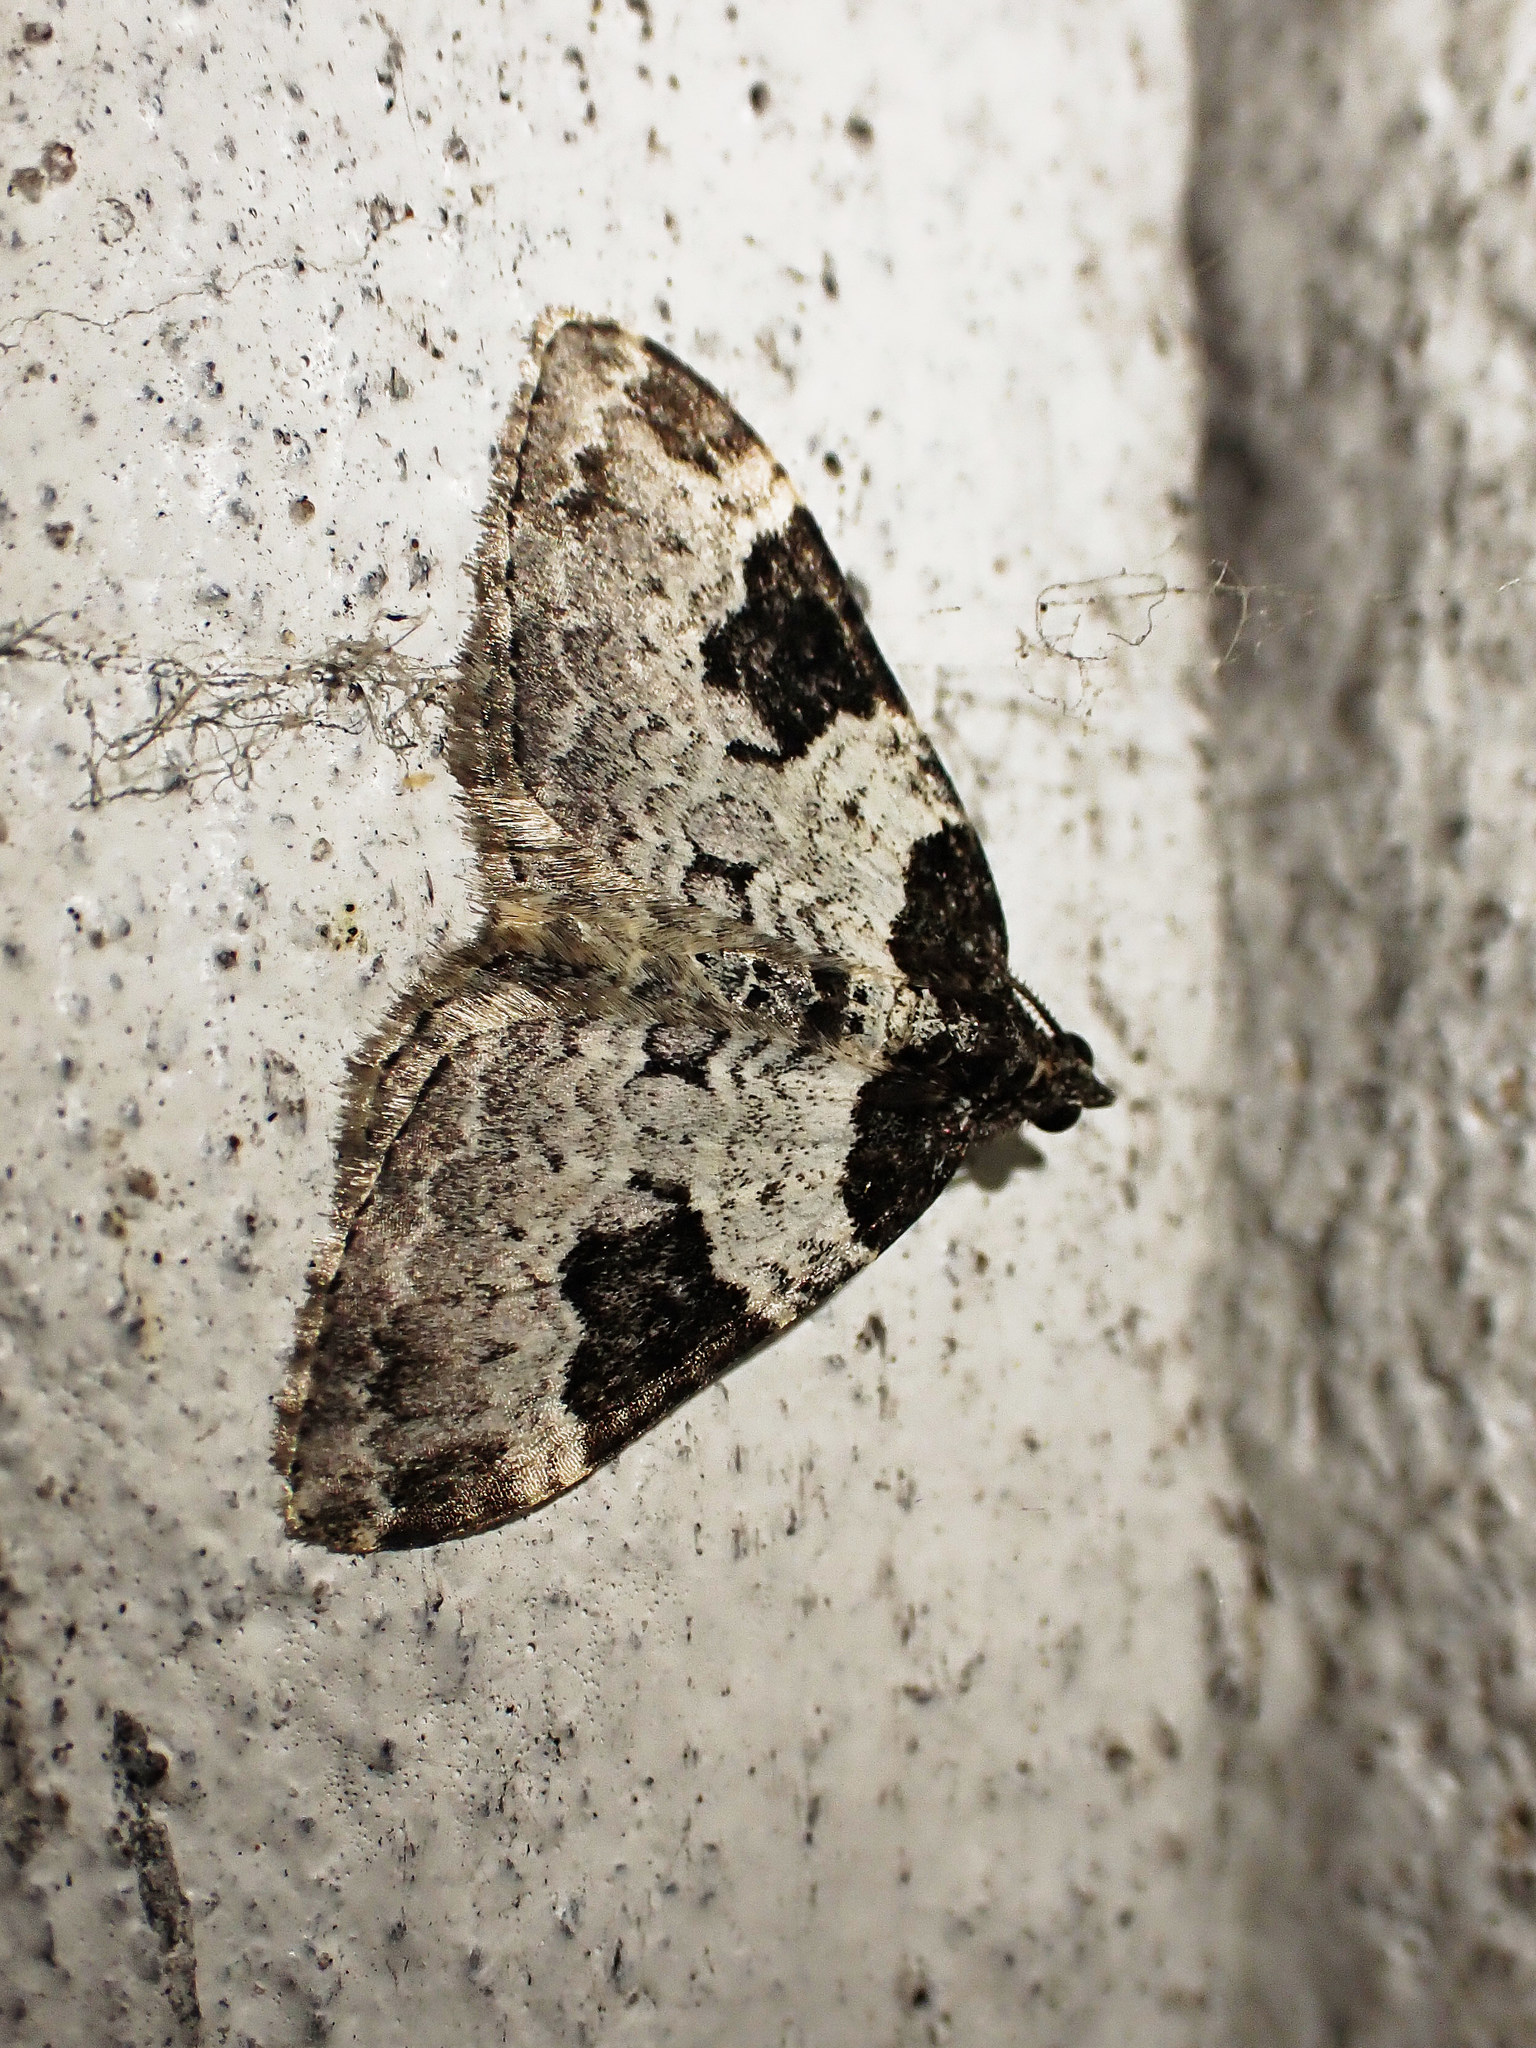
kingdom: Animalia
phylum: Arthropoda
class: Insecta
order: Lepidoptera
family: Geometridae
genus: Xanthorhoe
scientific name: Xanthorhoe fluctuata
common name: Garden carpet
